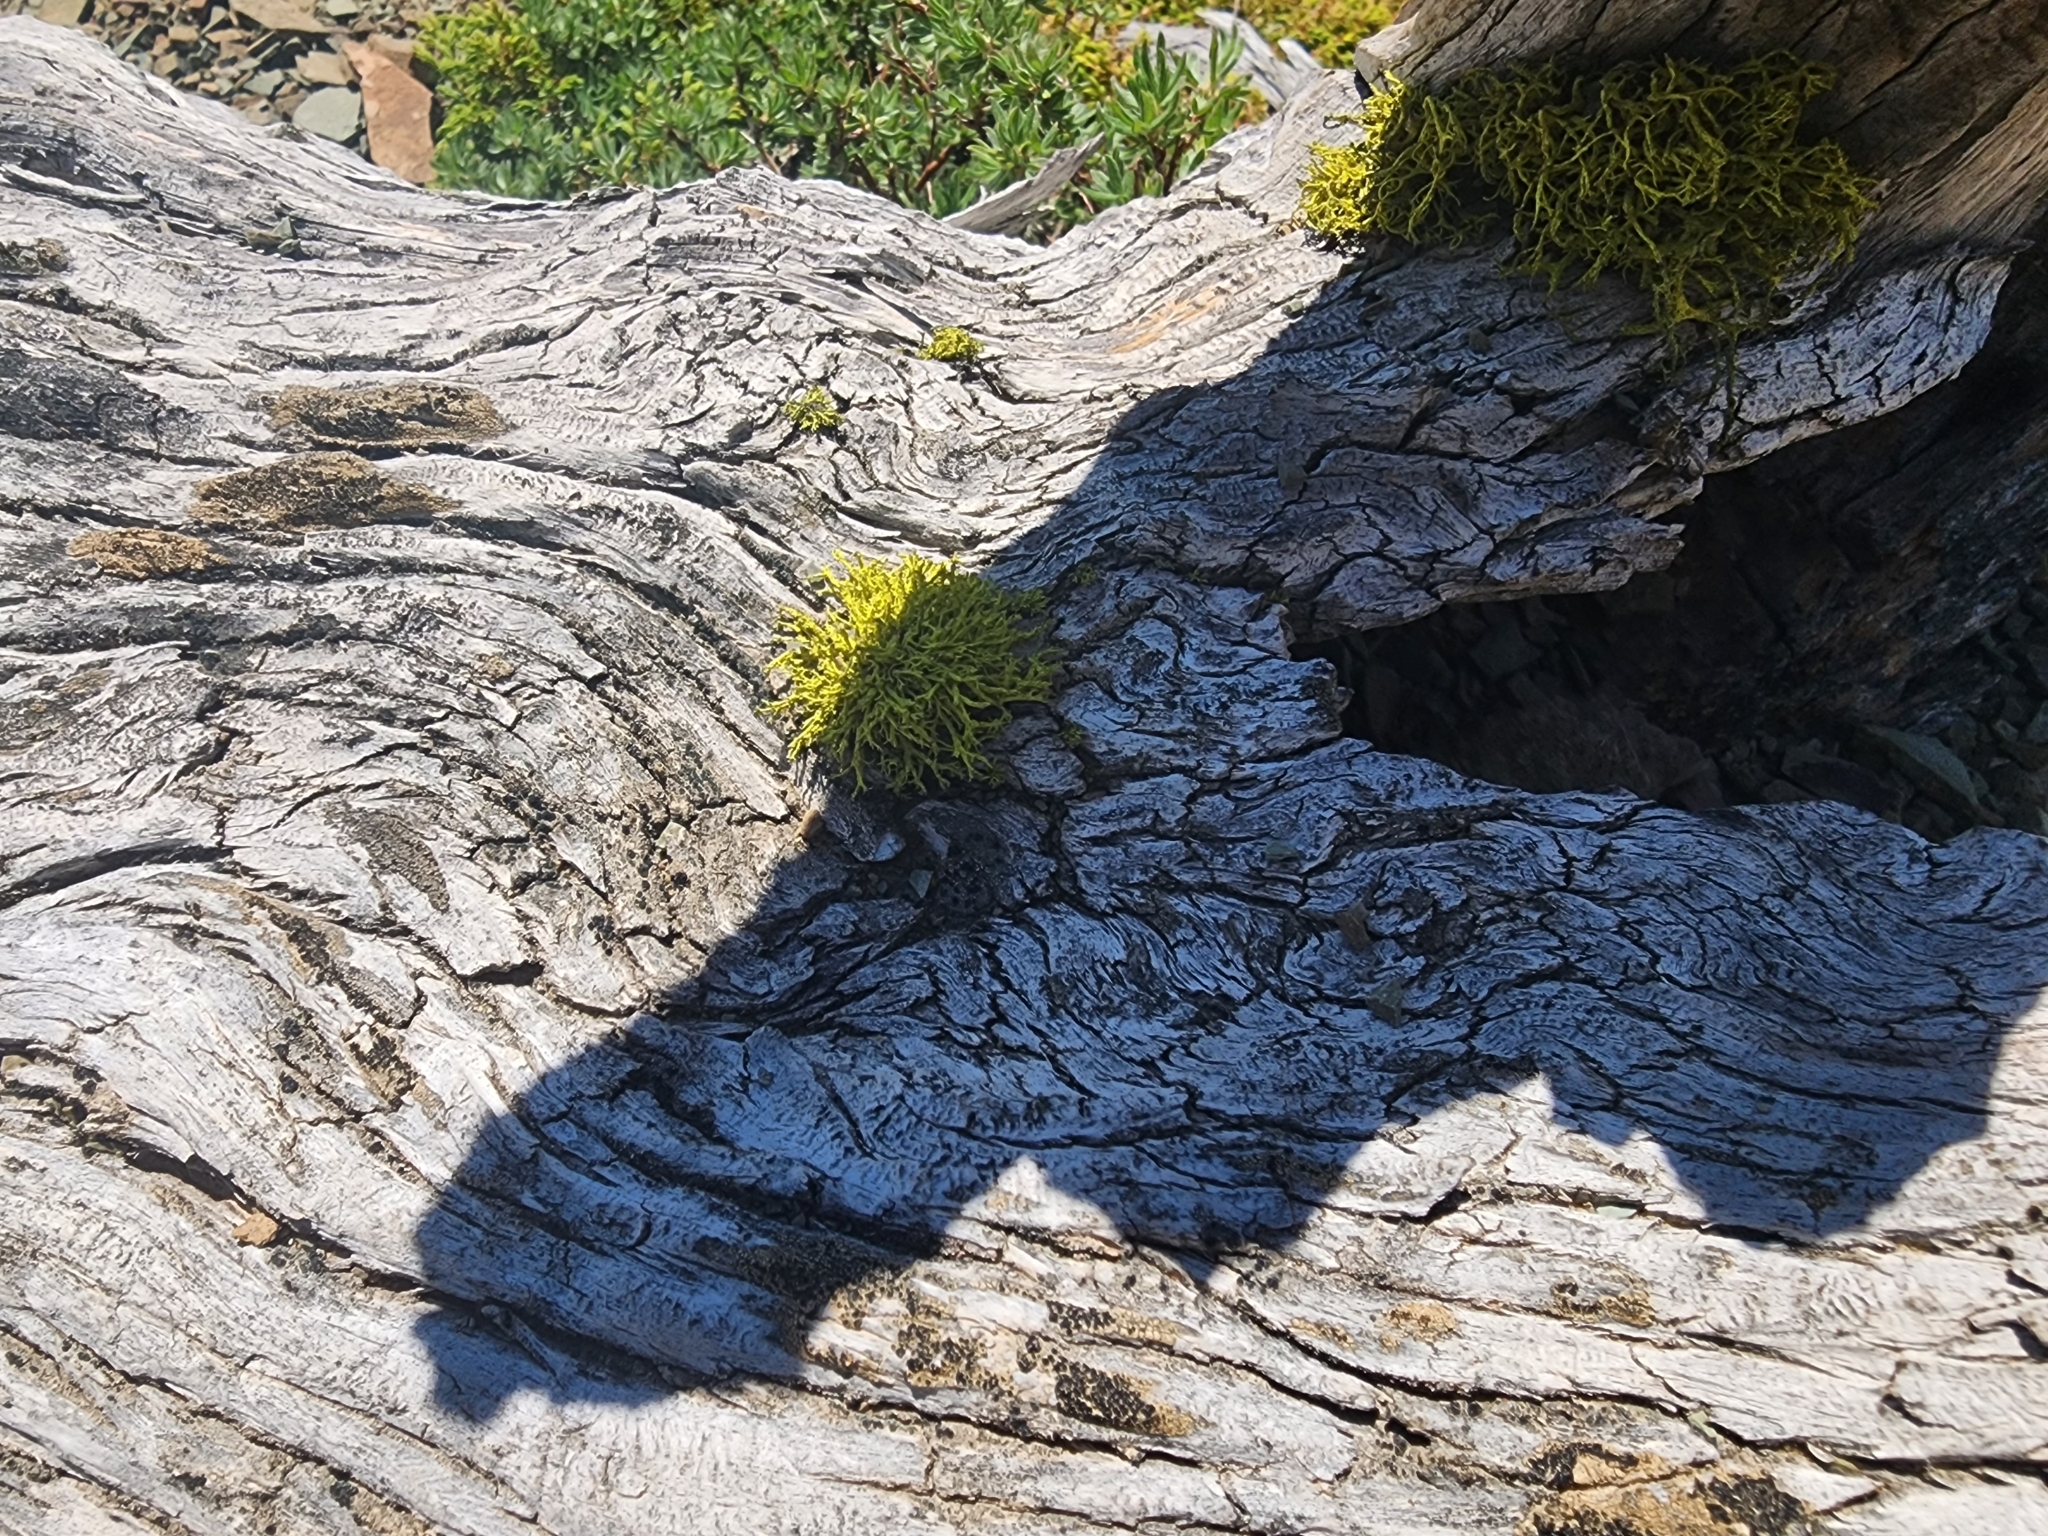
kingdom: Fungi
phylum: Ascomycota
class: Lecanoromycetes
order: Lecanorales
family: Parmeliaceae
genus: Letharia
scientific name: Letharia vulpina
